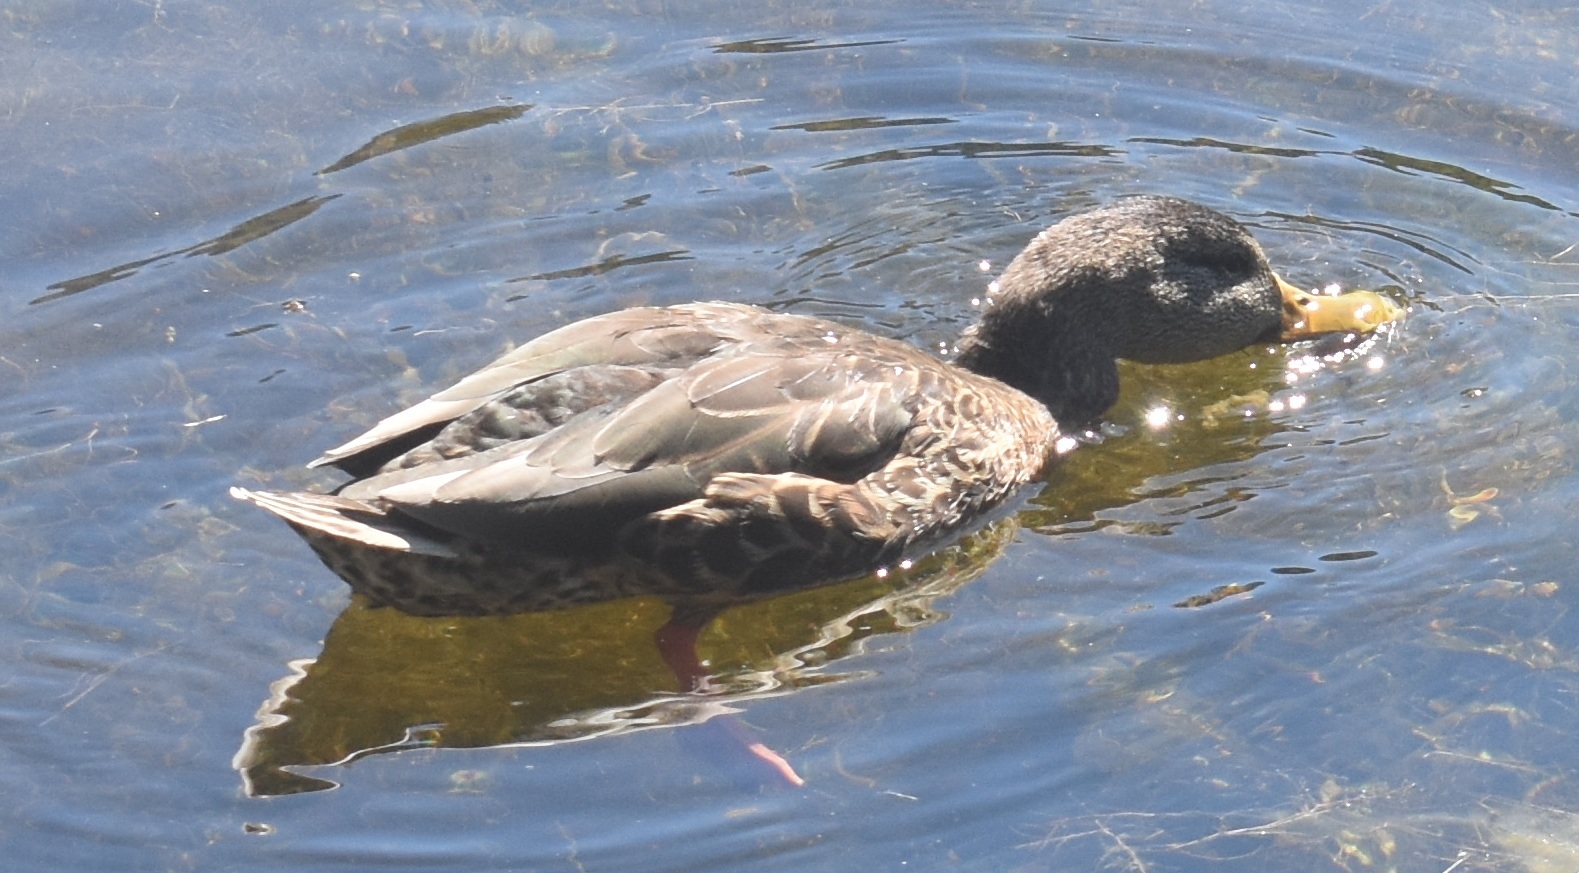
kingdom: Animalia
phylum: Chordata
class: Aves
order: Anseriformes
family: Anatidae
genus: Anas
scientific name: Anas platyrhynchos
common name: Mallard
